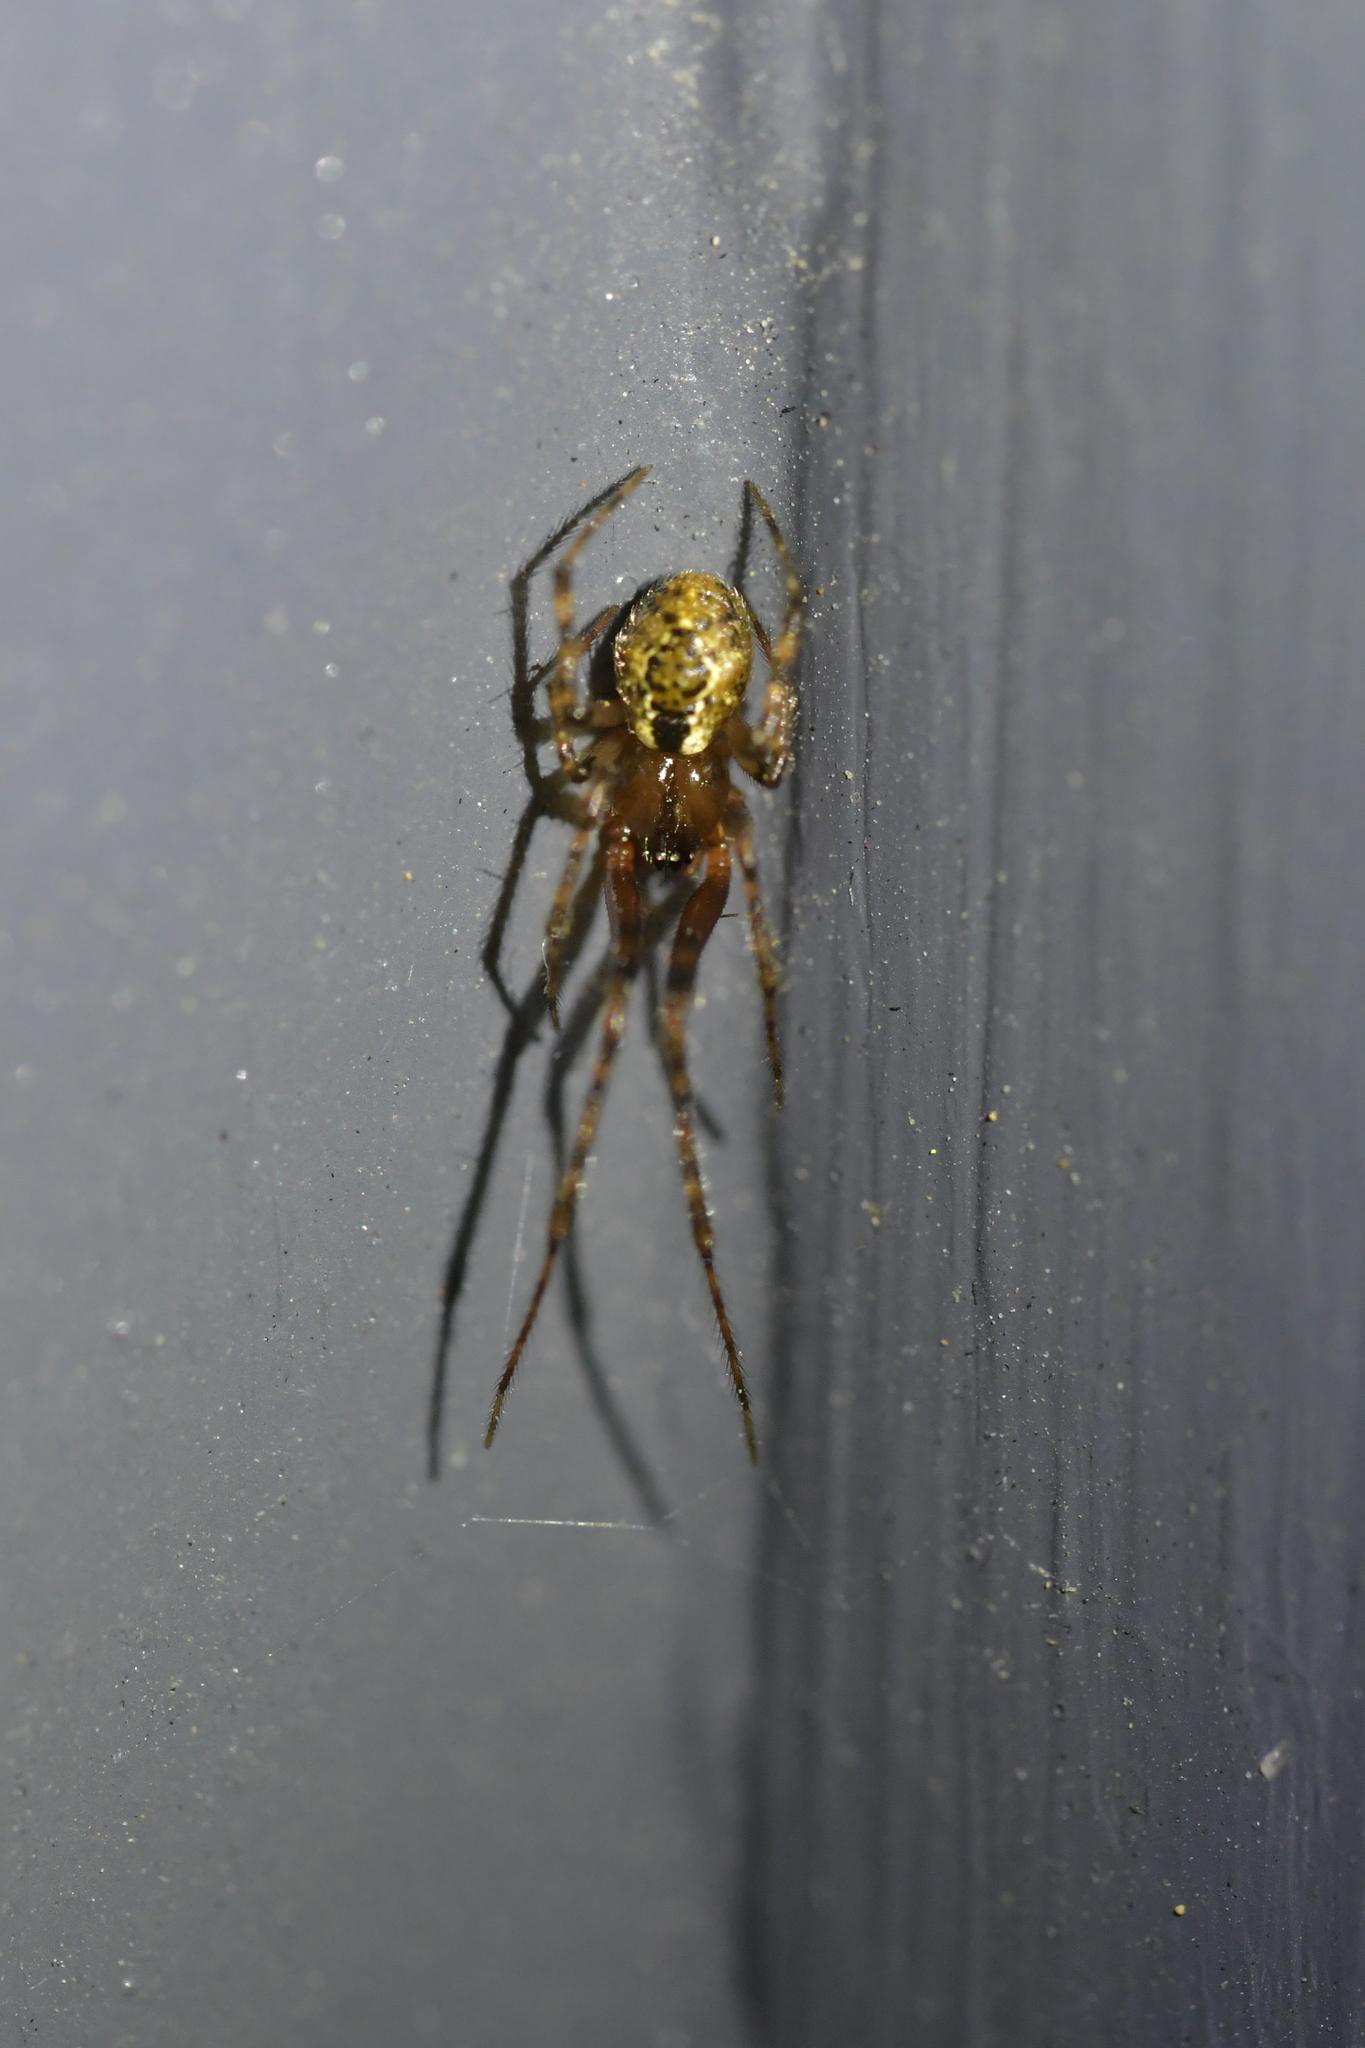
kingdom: Animalia
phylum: Arthropoda
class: Arachnida
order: Araneae
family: Theridiidae
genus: Cryptachaea
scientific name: Cryptachaea veruculata
